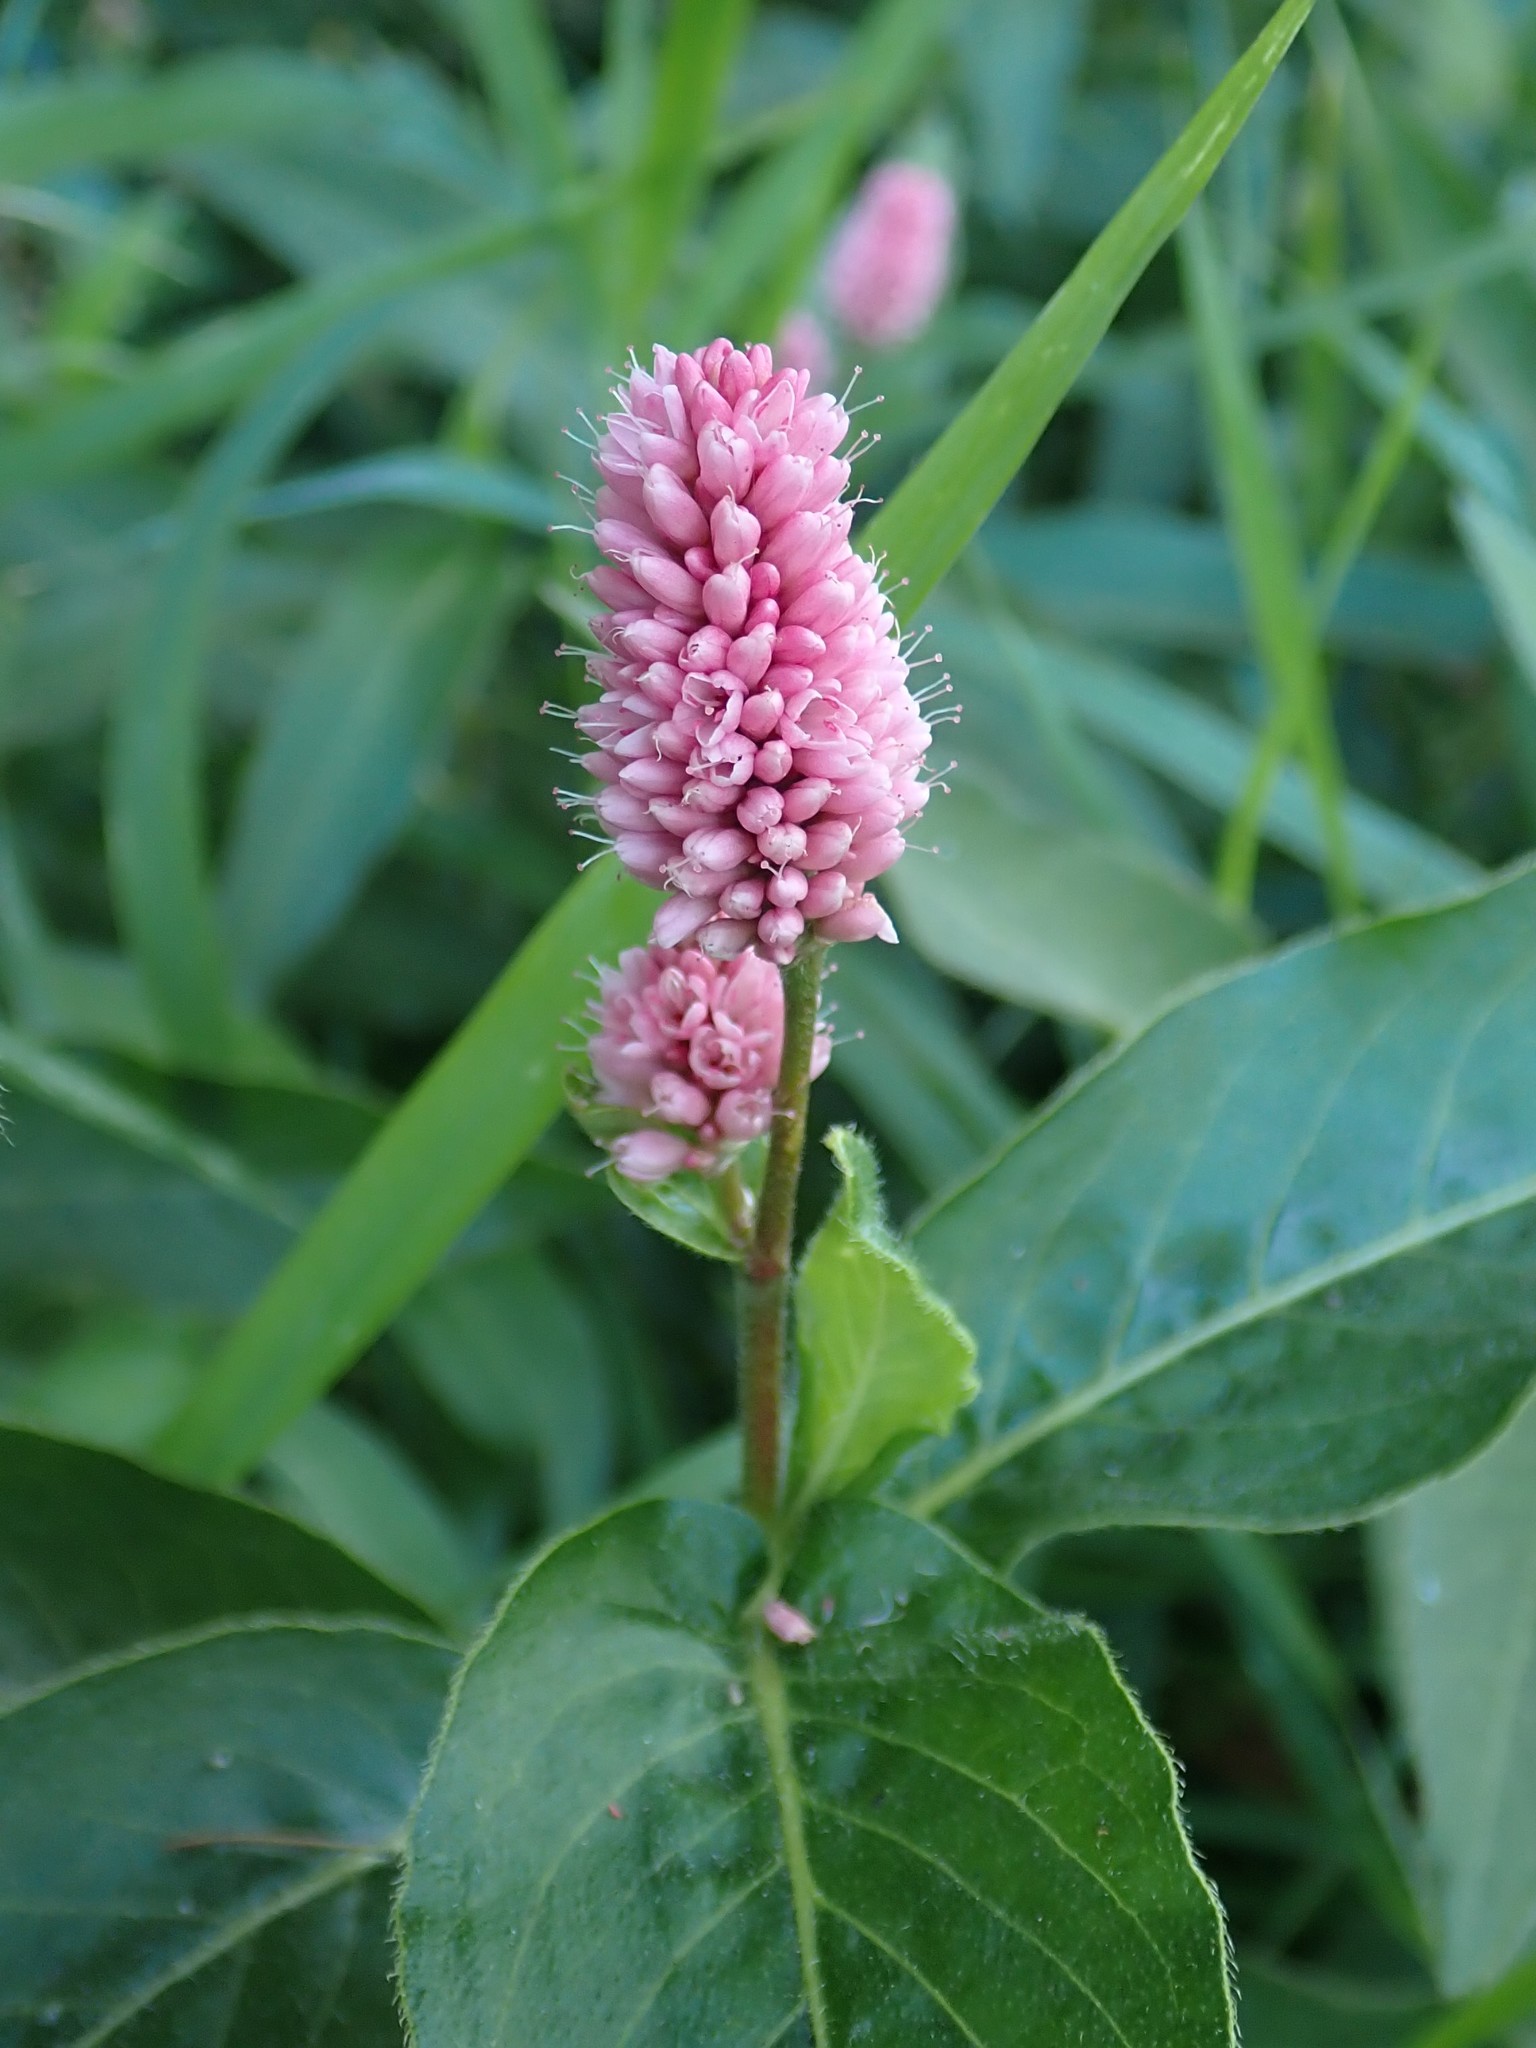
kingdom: Plantae
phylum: Tracheophyta
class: Magnoliopsida
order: Caryophyllales
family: Polygonaceae
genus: Persicaria
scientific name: Persicaria amphibia
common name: Amphibious bistort
